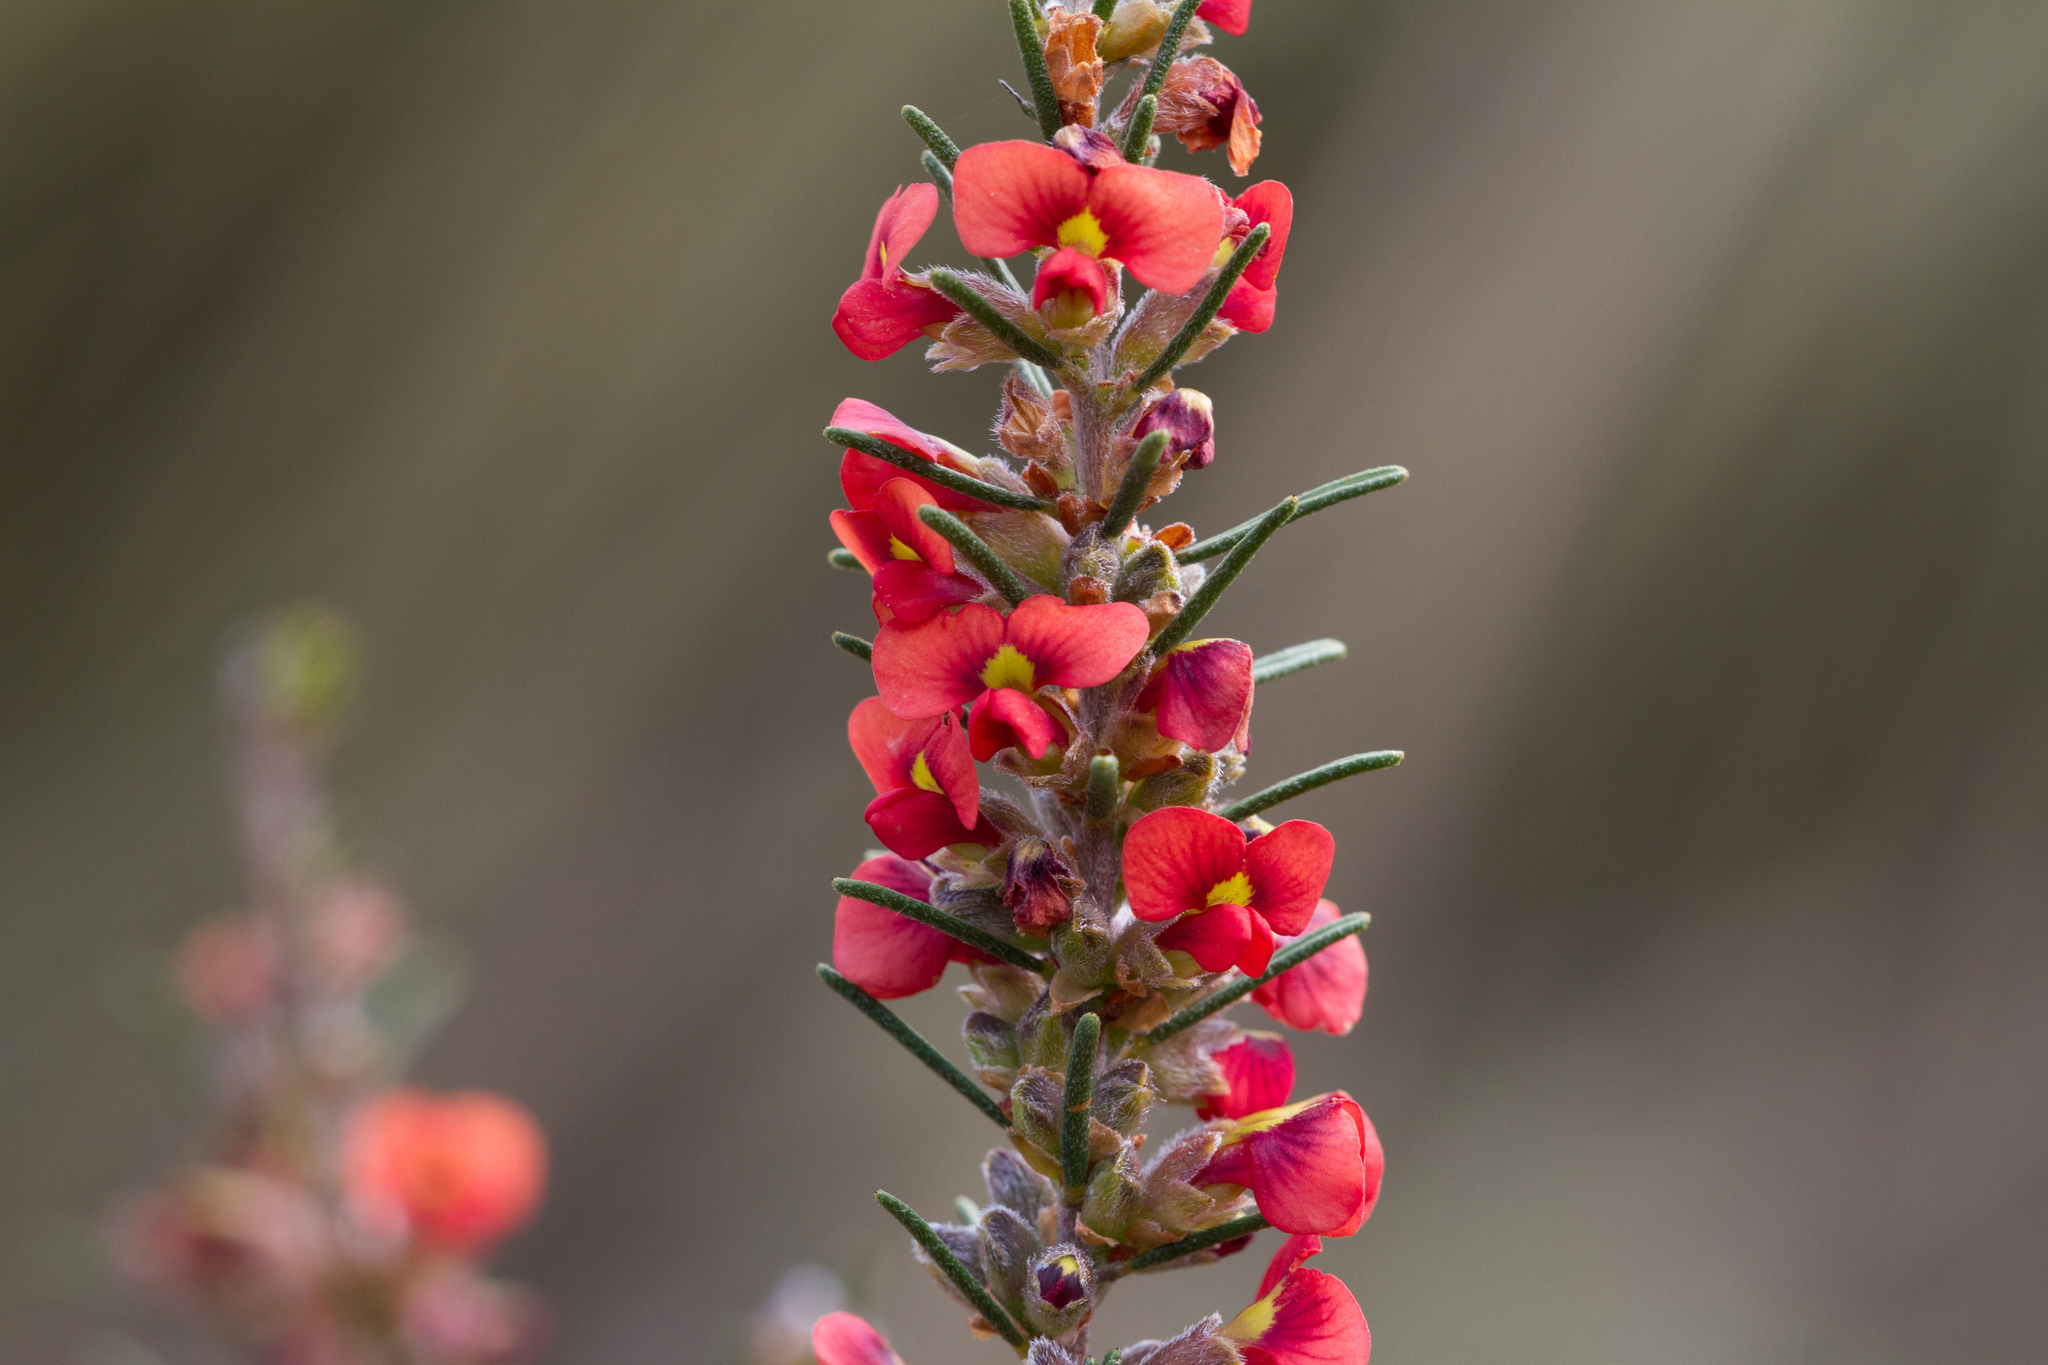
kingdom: Plantae
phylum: Tracheophyta
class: Magnoliopsida
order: Fabales
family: Fabaceae
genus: Dillwynia
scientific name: Dillwynia sericea
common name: Showy parrot-pea
